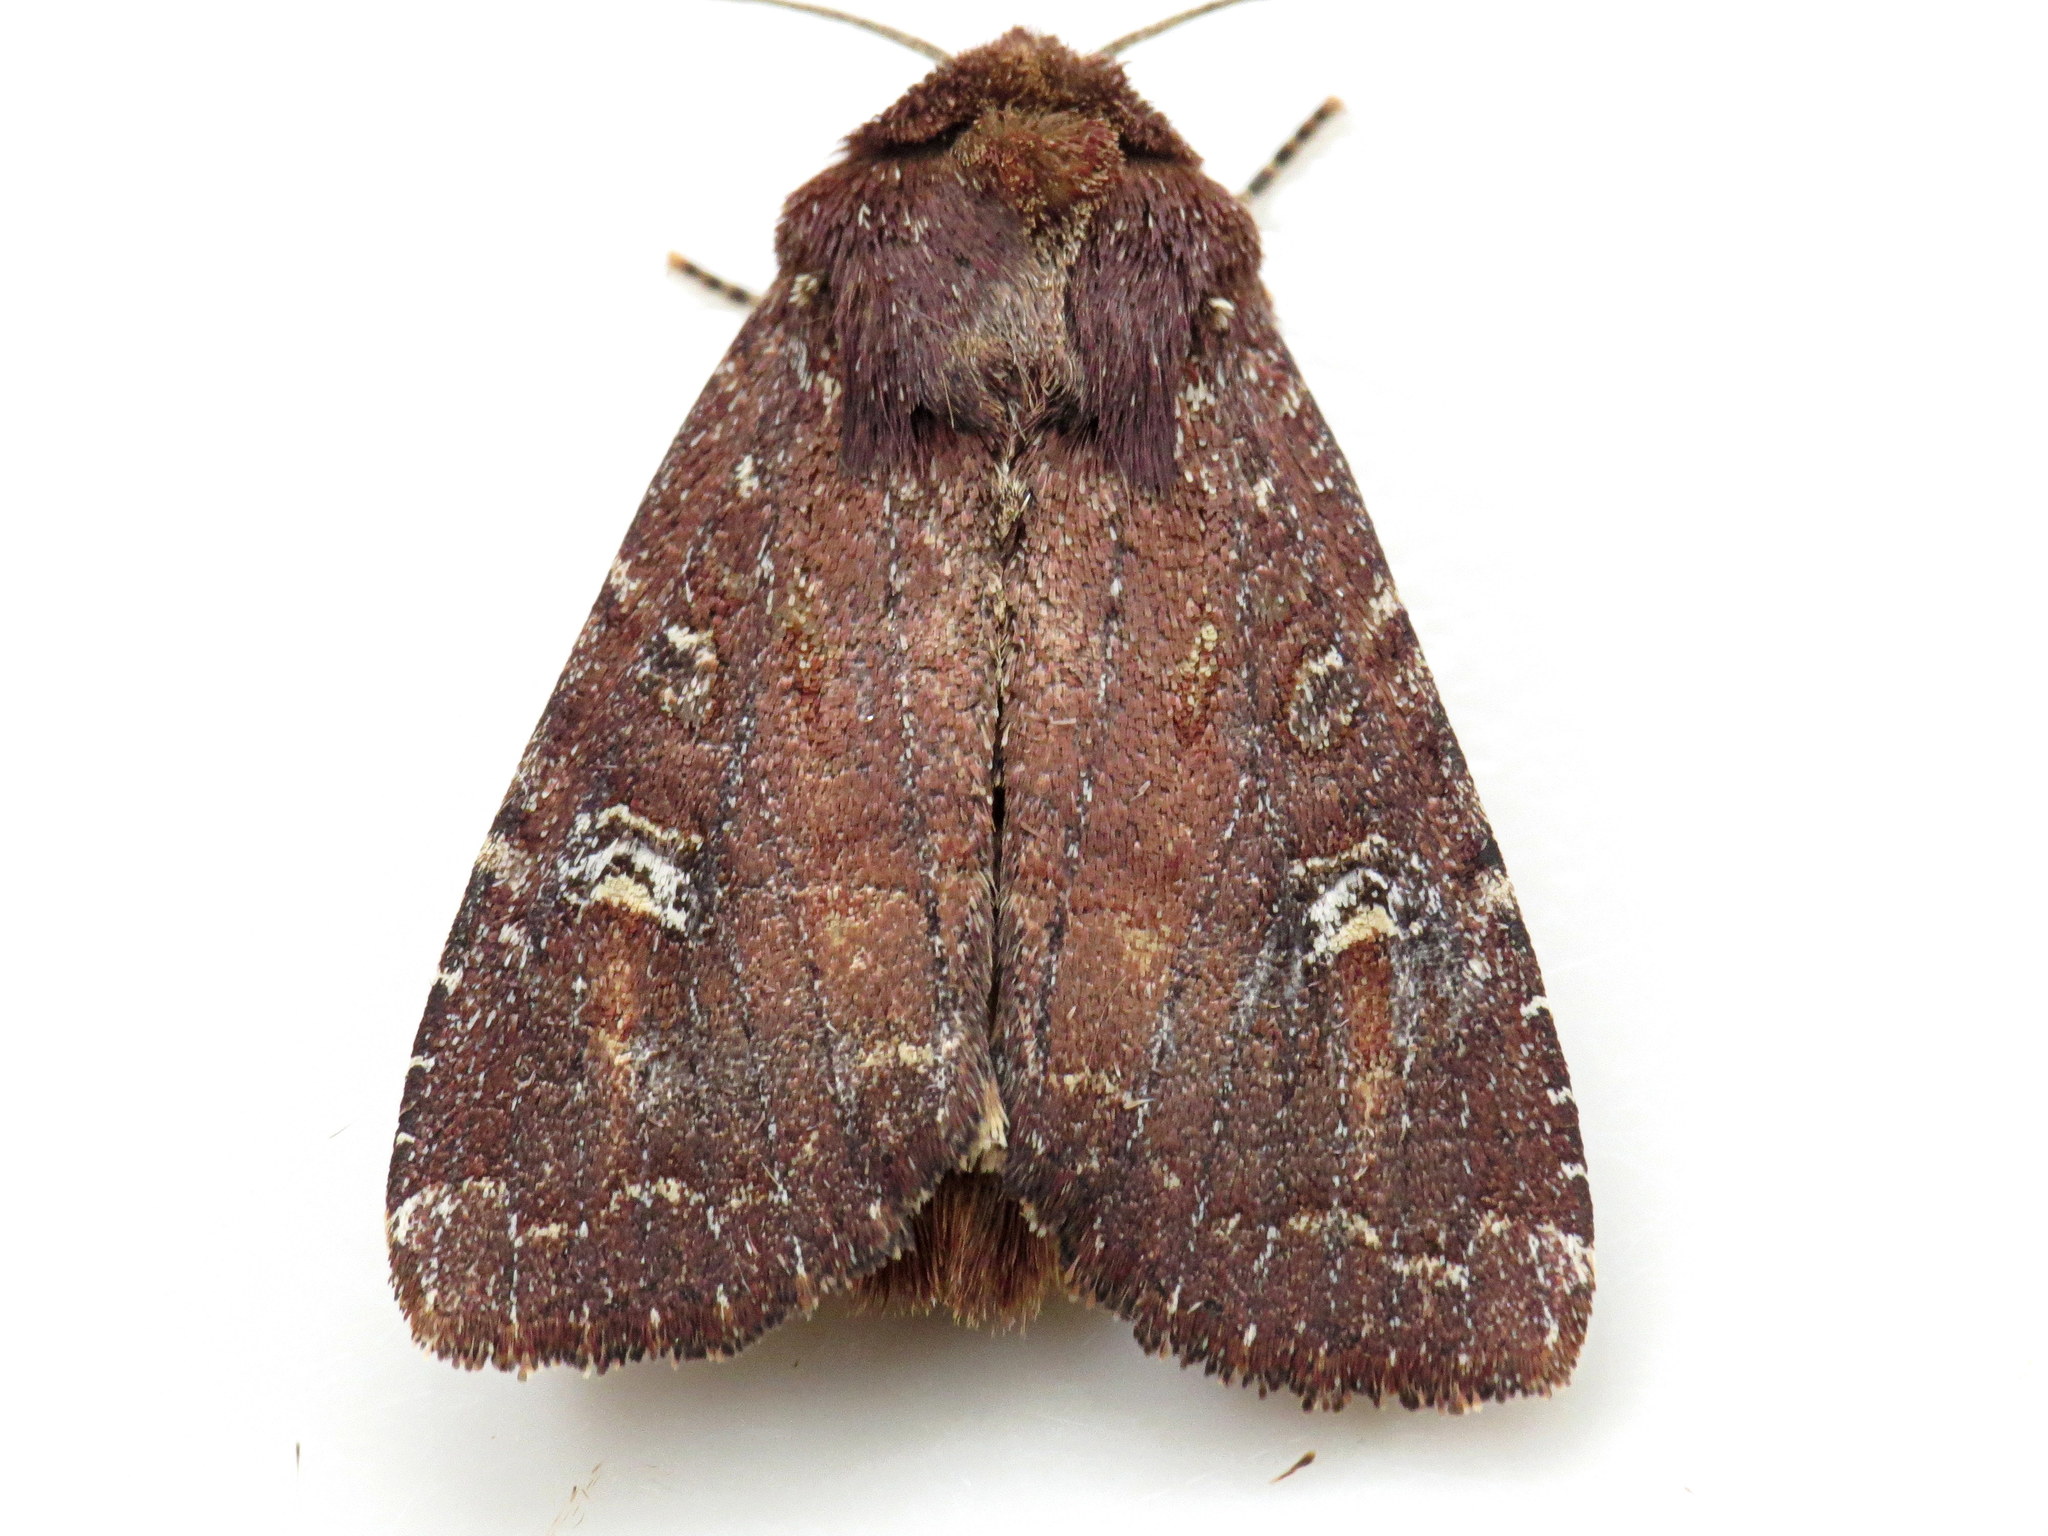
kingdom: Animalia
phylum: Arthropoda
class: Insecta
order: Lepidoptera
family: Noctuidae
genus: Apamea
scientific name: Apamea cogitata
